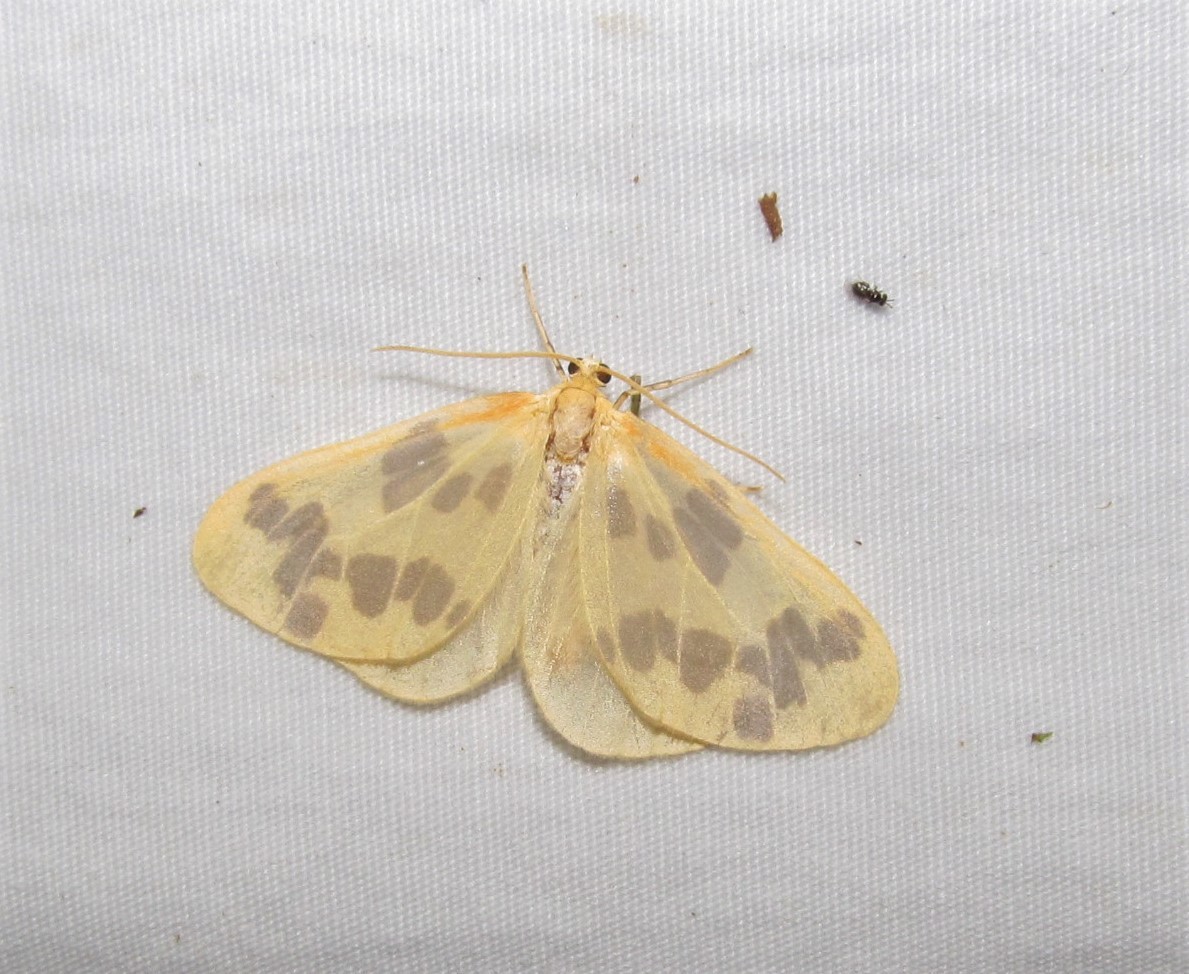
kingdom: Animalia
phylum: Arthropoda
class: Insecta
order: Lepidoptera
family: Geometridae
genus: Eubaphe
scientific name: Eubaphe mendica
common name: Beggar
